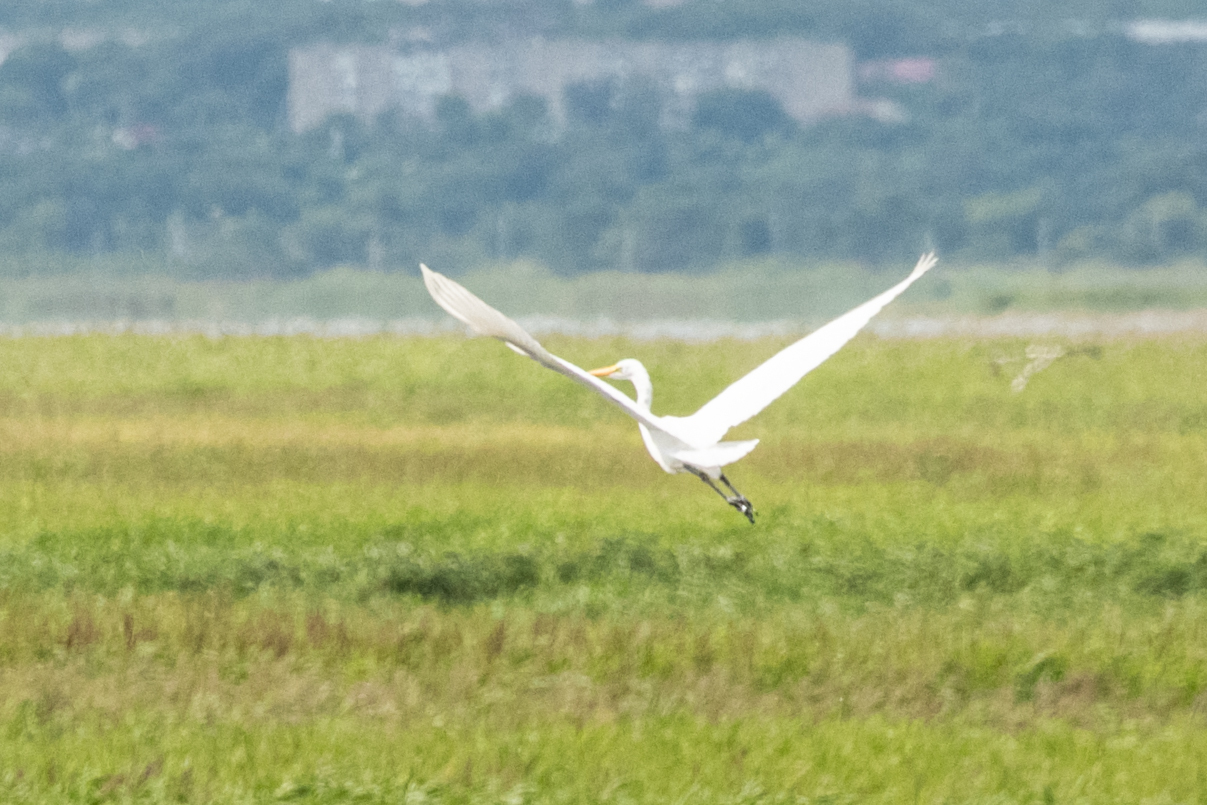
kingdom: Animalia
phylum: Chordata
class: Aves
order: Pelecaniformes
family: Ardeidae
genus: Ardea
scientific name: Ardea alba
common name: Great egret
